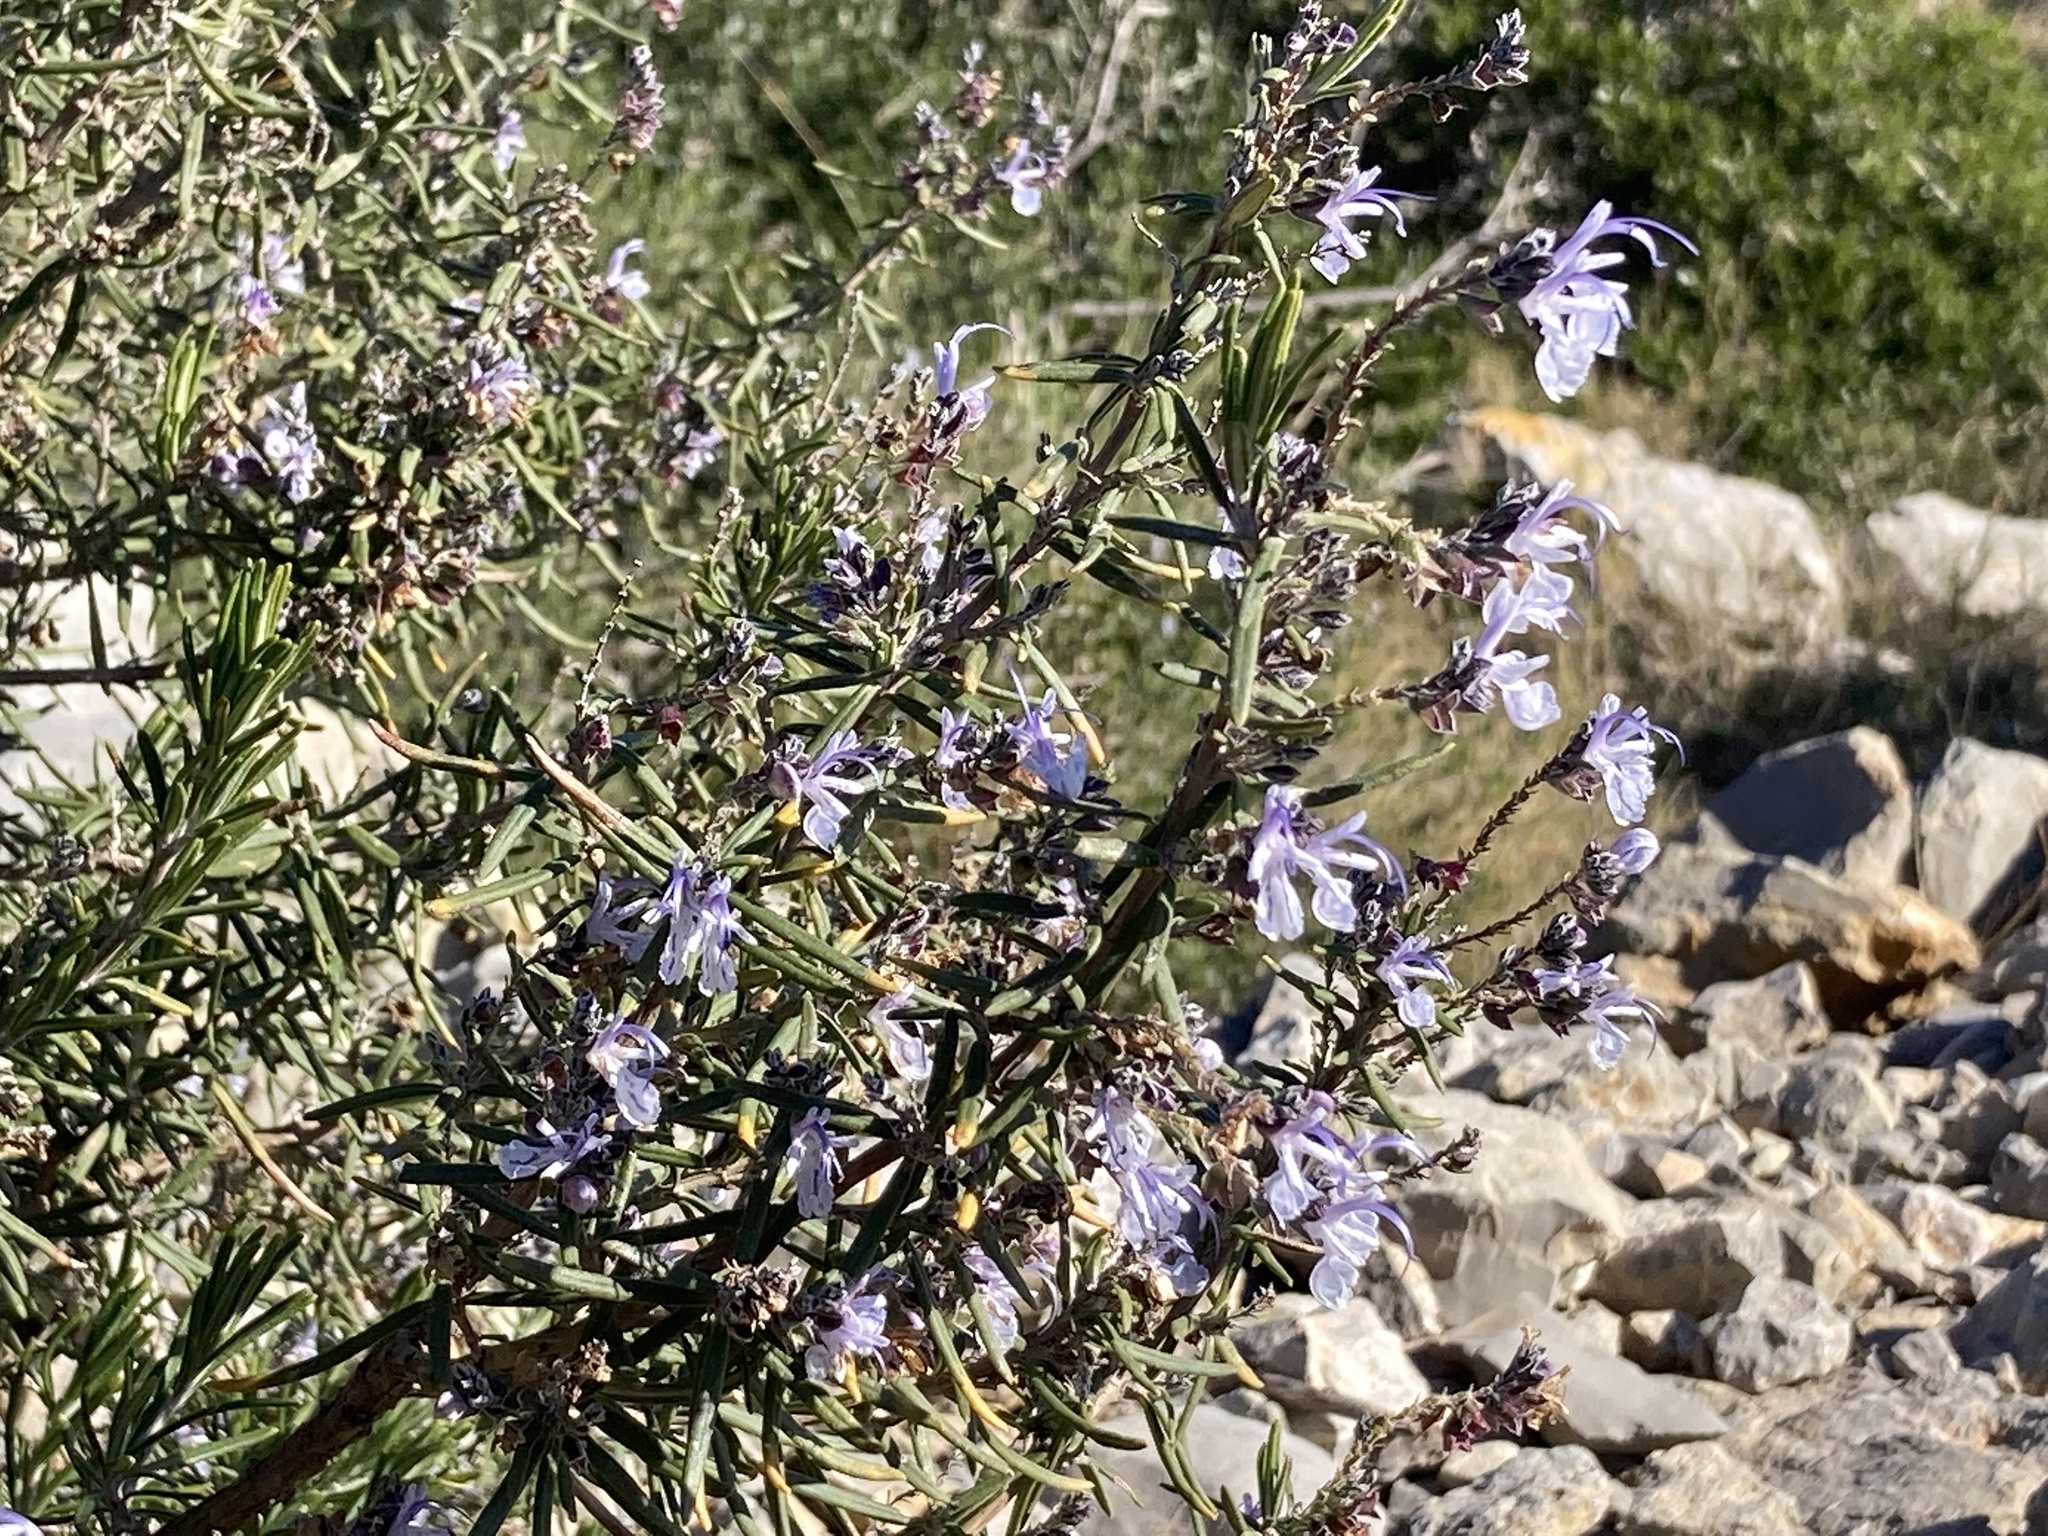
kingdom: Plantae
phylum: Tracheophyta
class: Magnoliopsida
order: Lamiales
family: Lamiaceae
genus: Salvia
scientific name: Salvia rosmarinus
